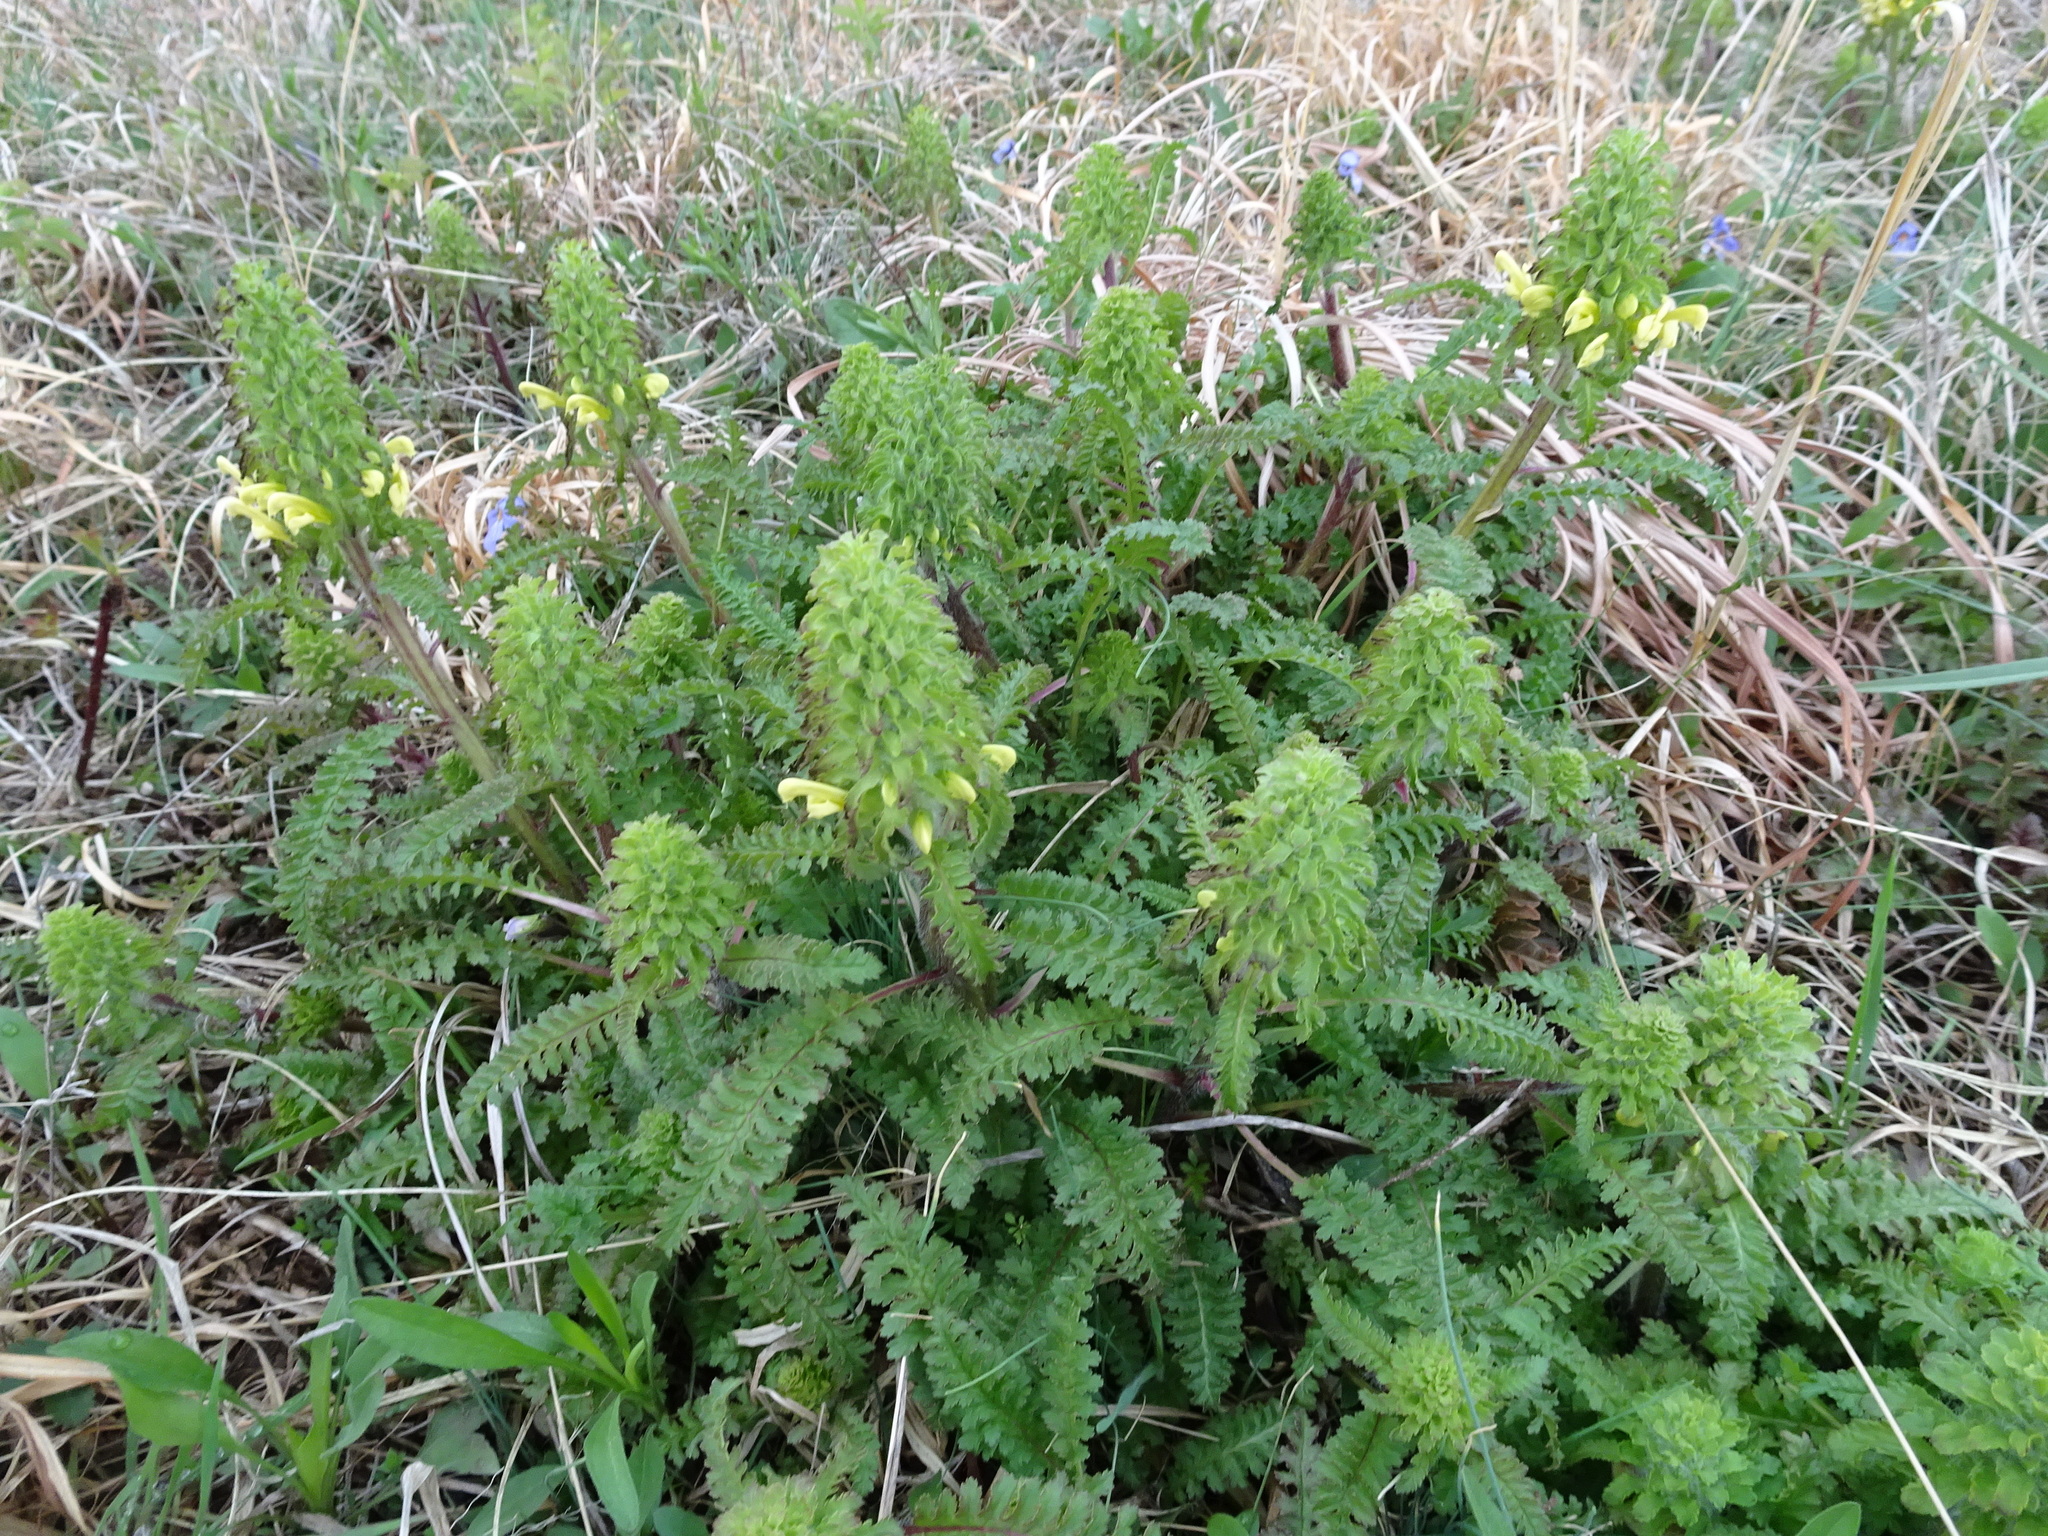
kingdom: Plantae
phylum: Tracheophyta
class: Magnoliopsida
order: Lamiales
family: Orobanchaceae
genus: Pedicularis
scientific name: Pedicularis canadensis
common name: Early lousewort
